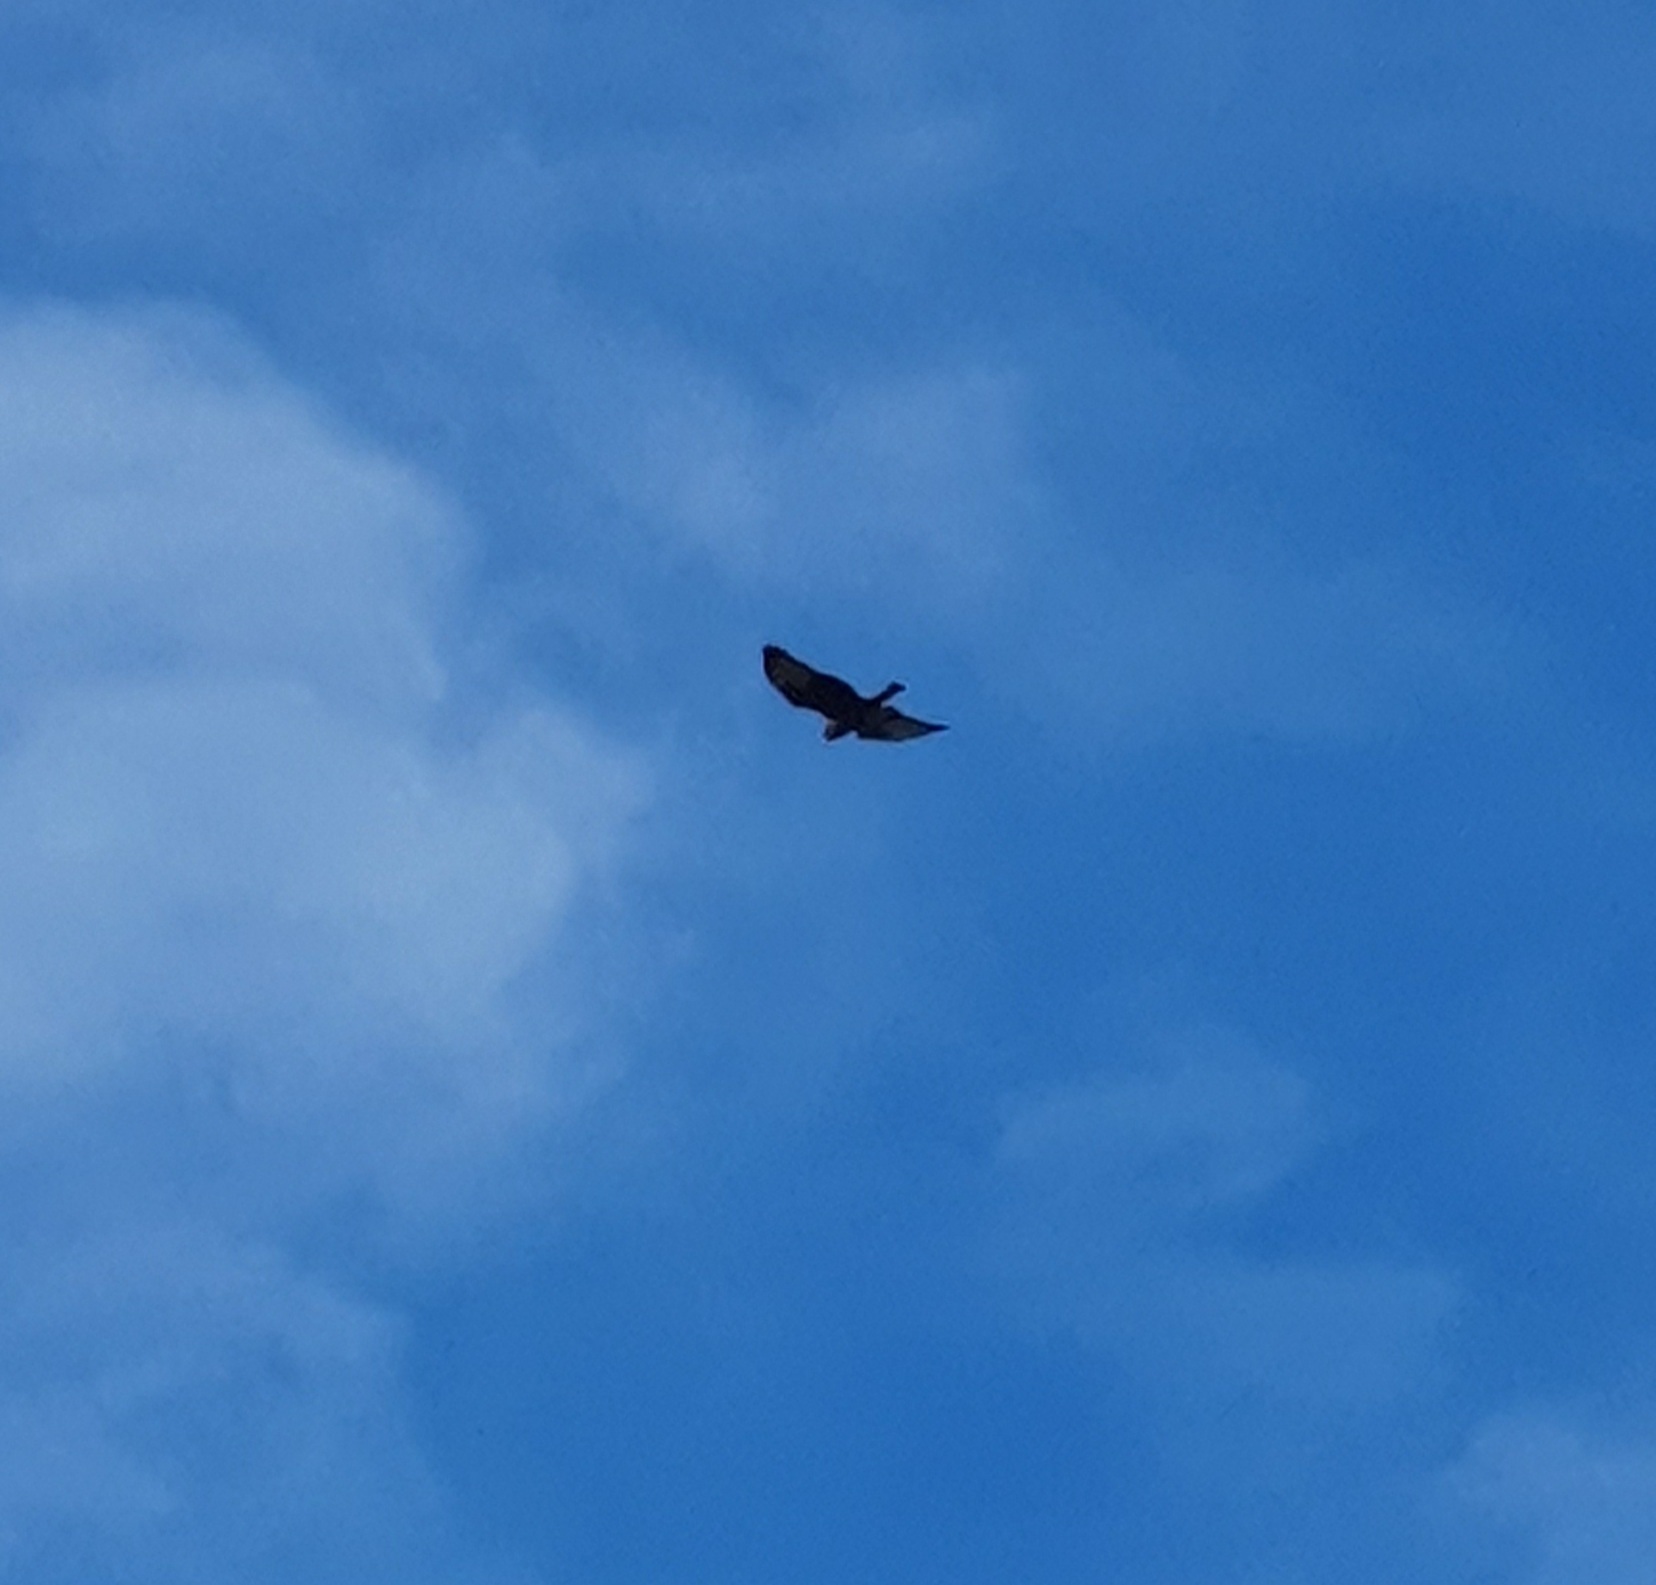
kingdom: Animalia
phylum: Chordata
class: Aves
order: Accipitriformes
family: Accipitridae
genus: Circus
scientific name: Circus approximans
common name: Swamp harrier
